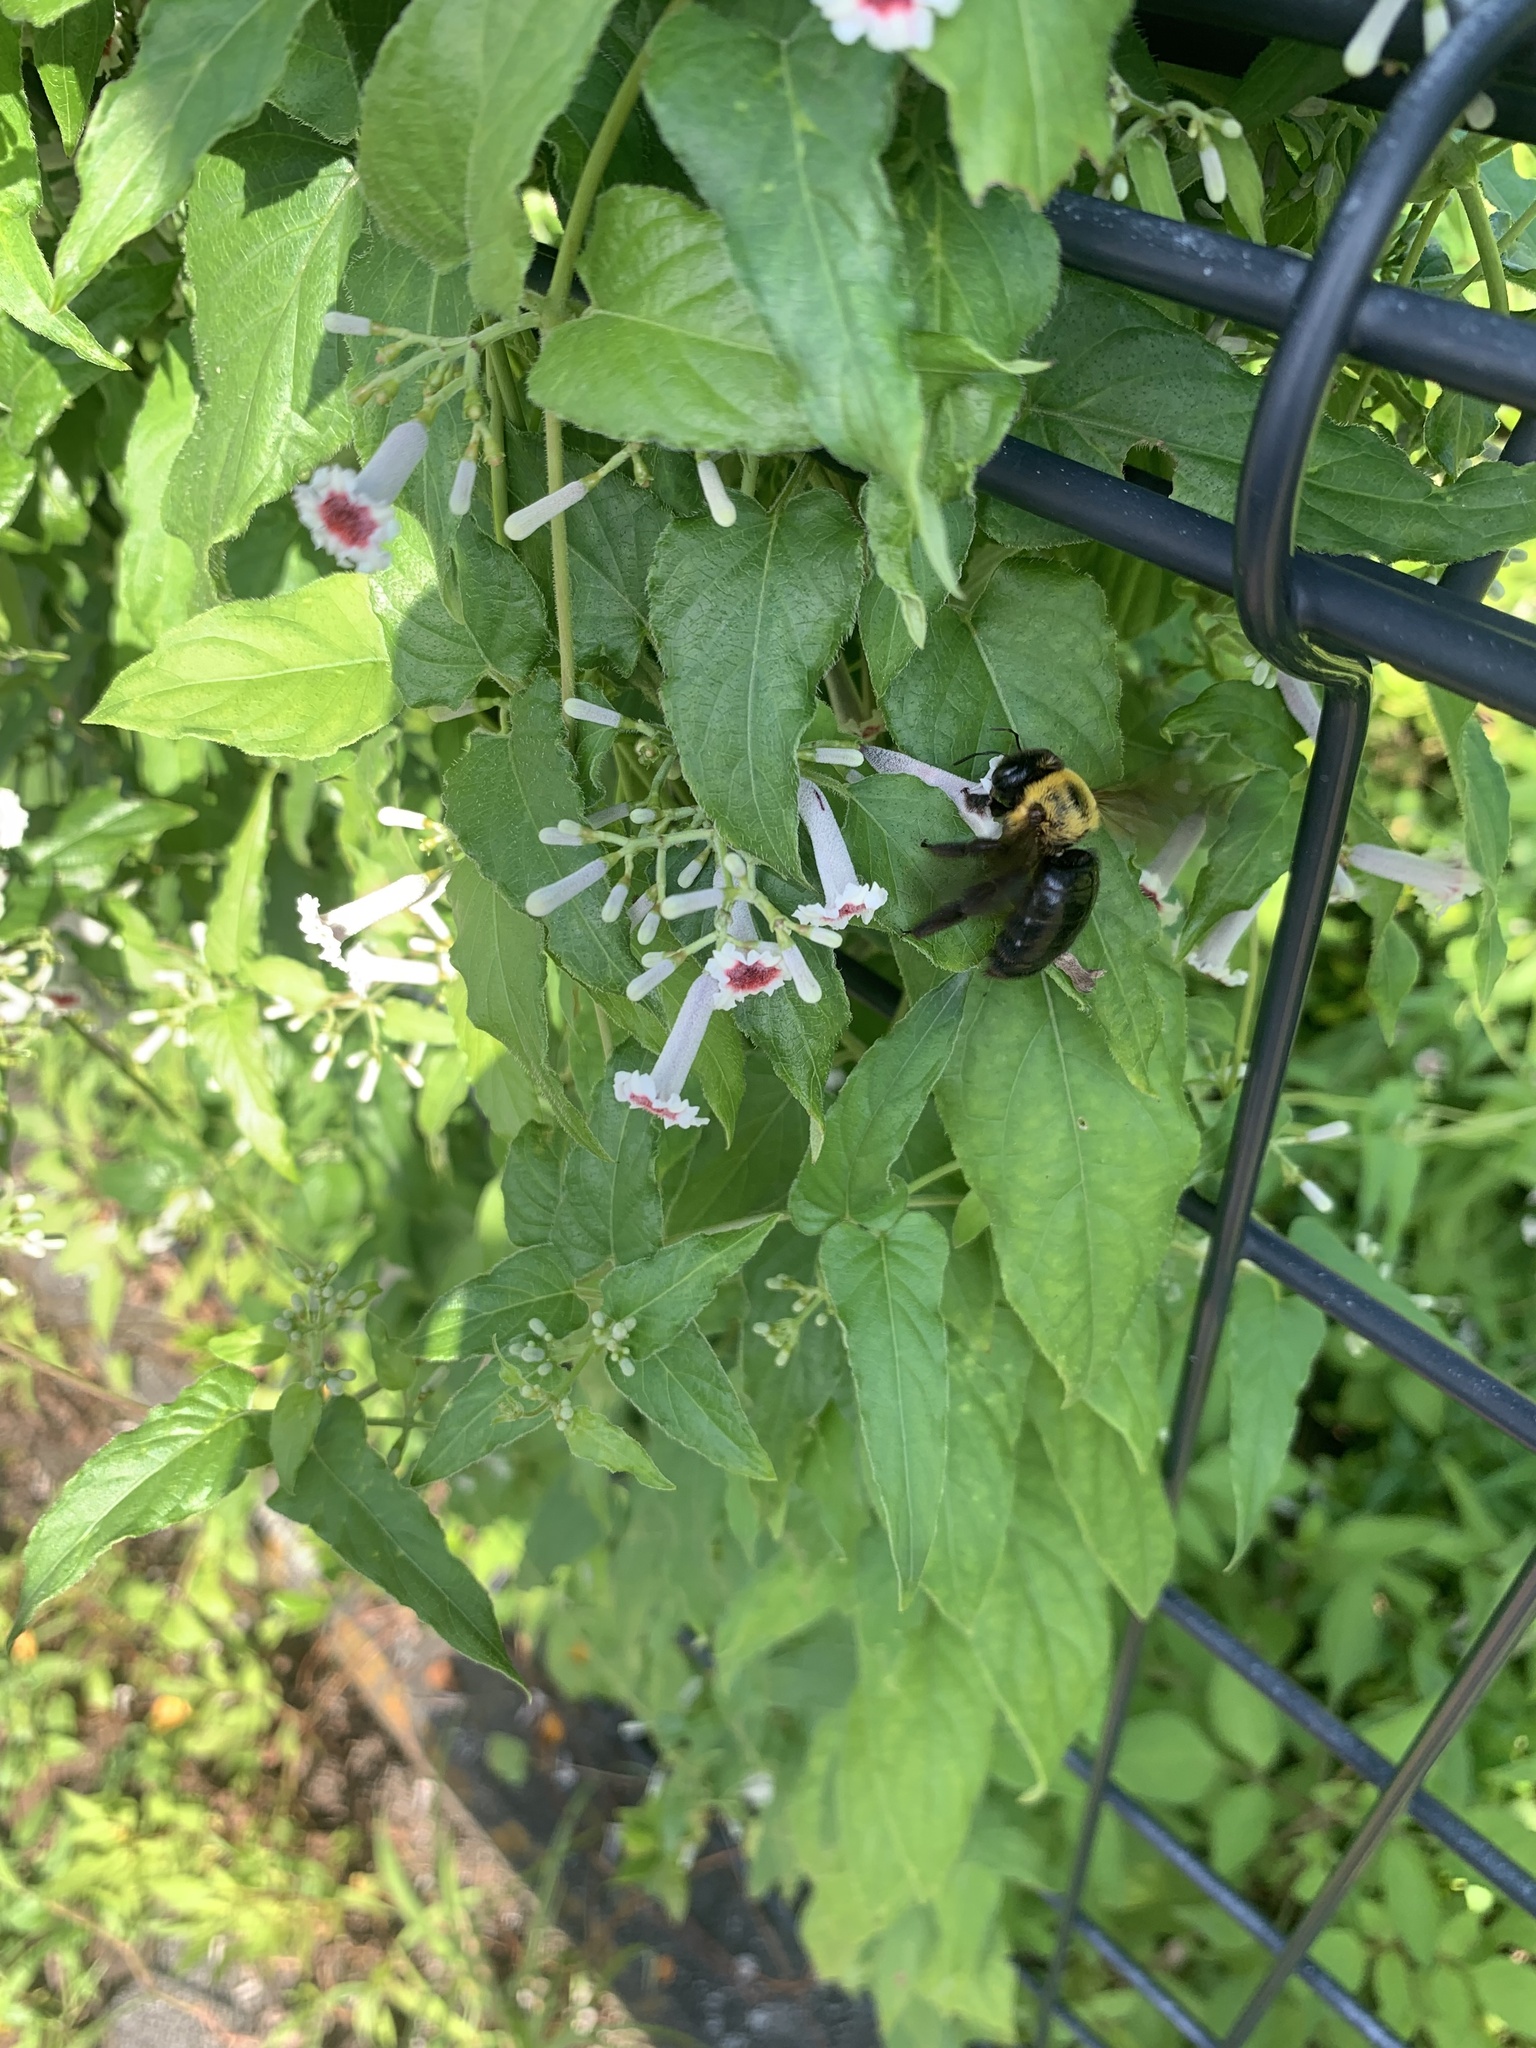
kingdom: Animalia
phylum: Arthropoda
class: Insecta
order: Hymenoptera
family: Apidae
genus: Xylocopa
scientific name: Xylocopa appendiculata
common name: Japanese carpenter bee
